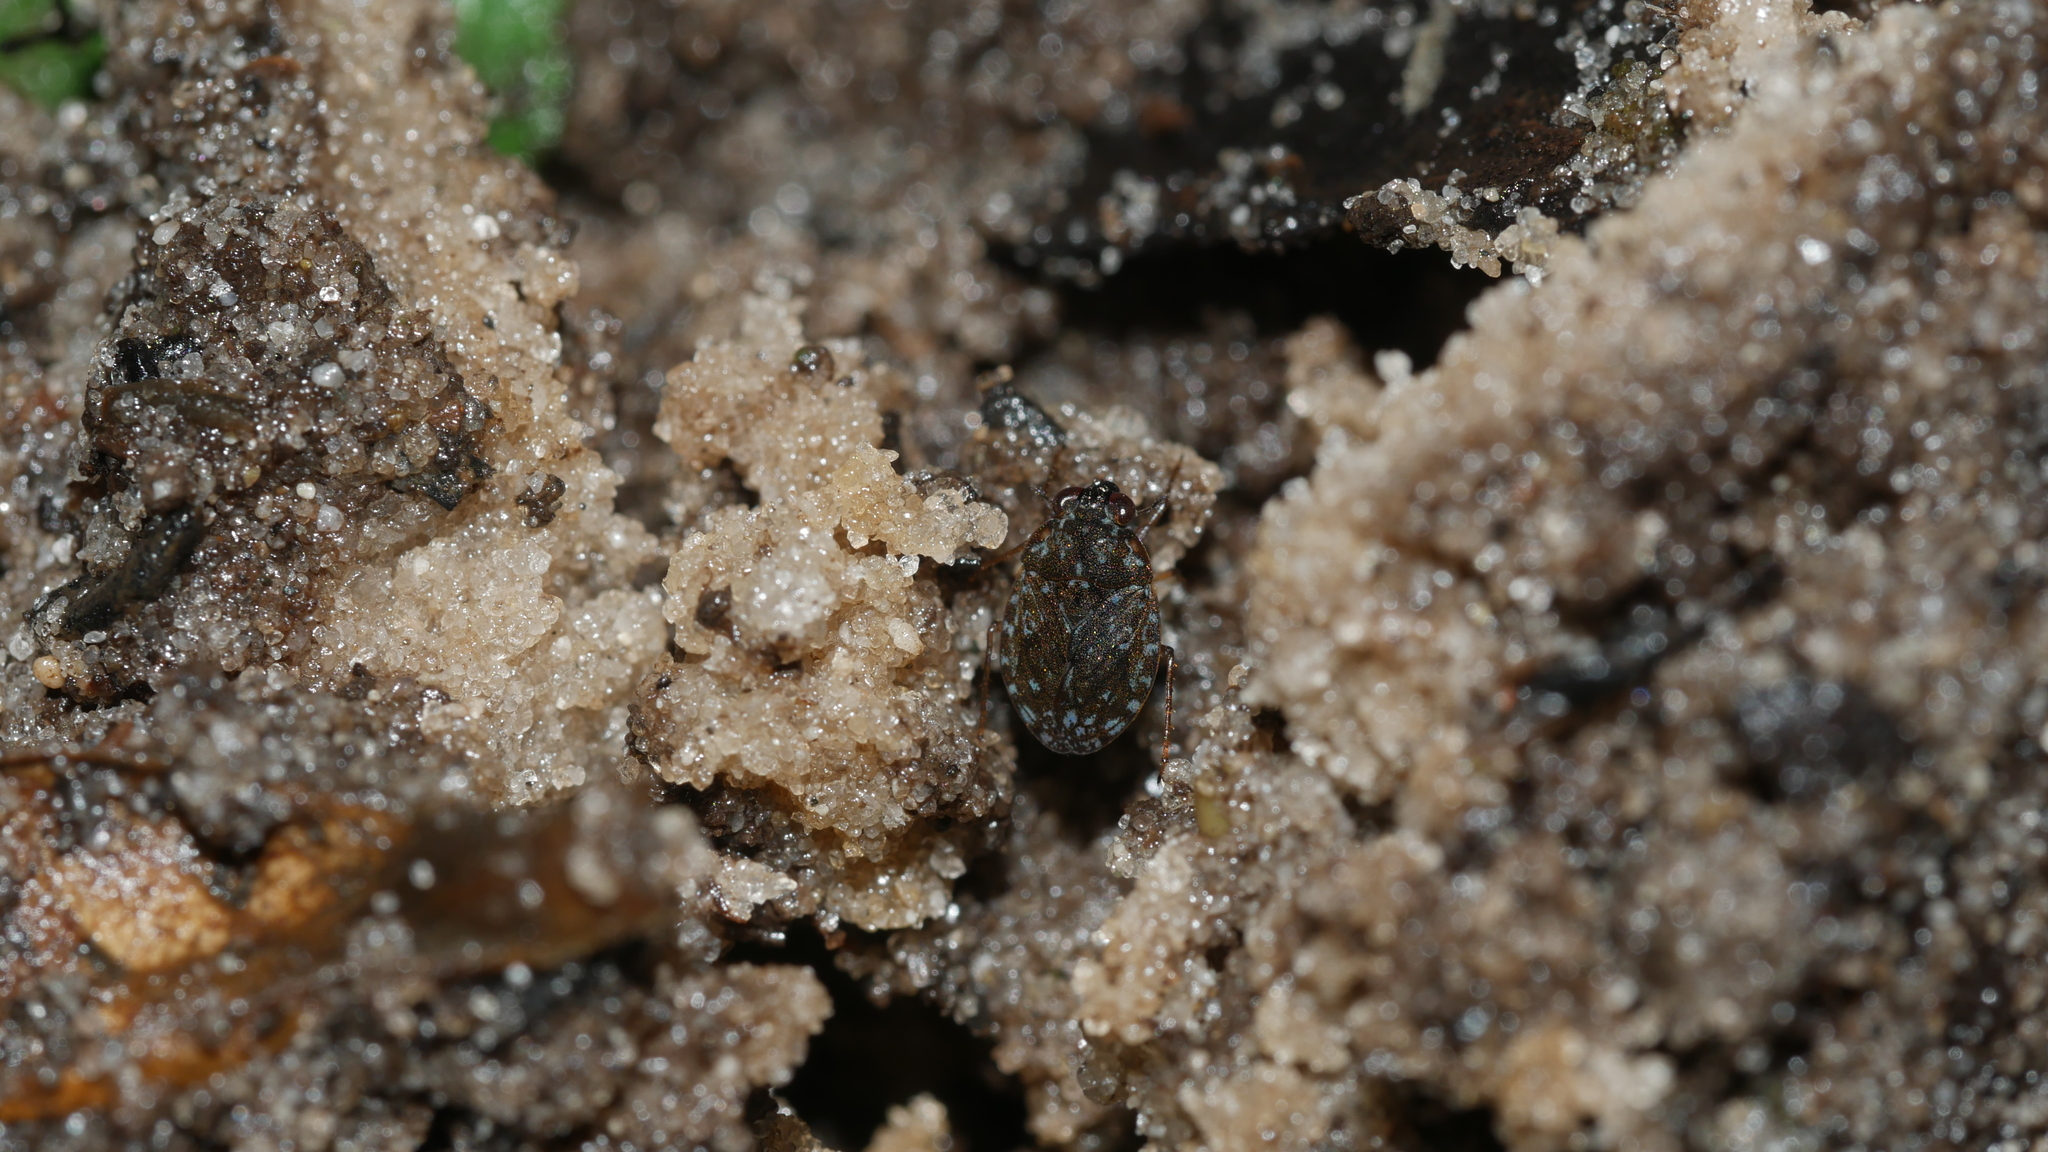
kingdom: Animalia
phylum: Arthropoda
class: Insecta
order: Hemiptera
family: Ochteridae
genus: Ochterus
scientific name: Ochterus
